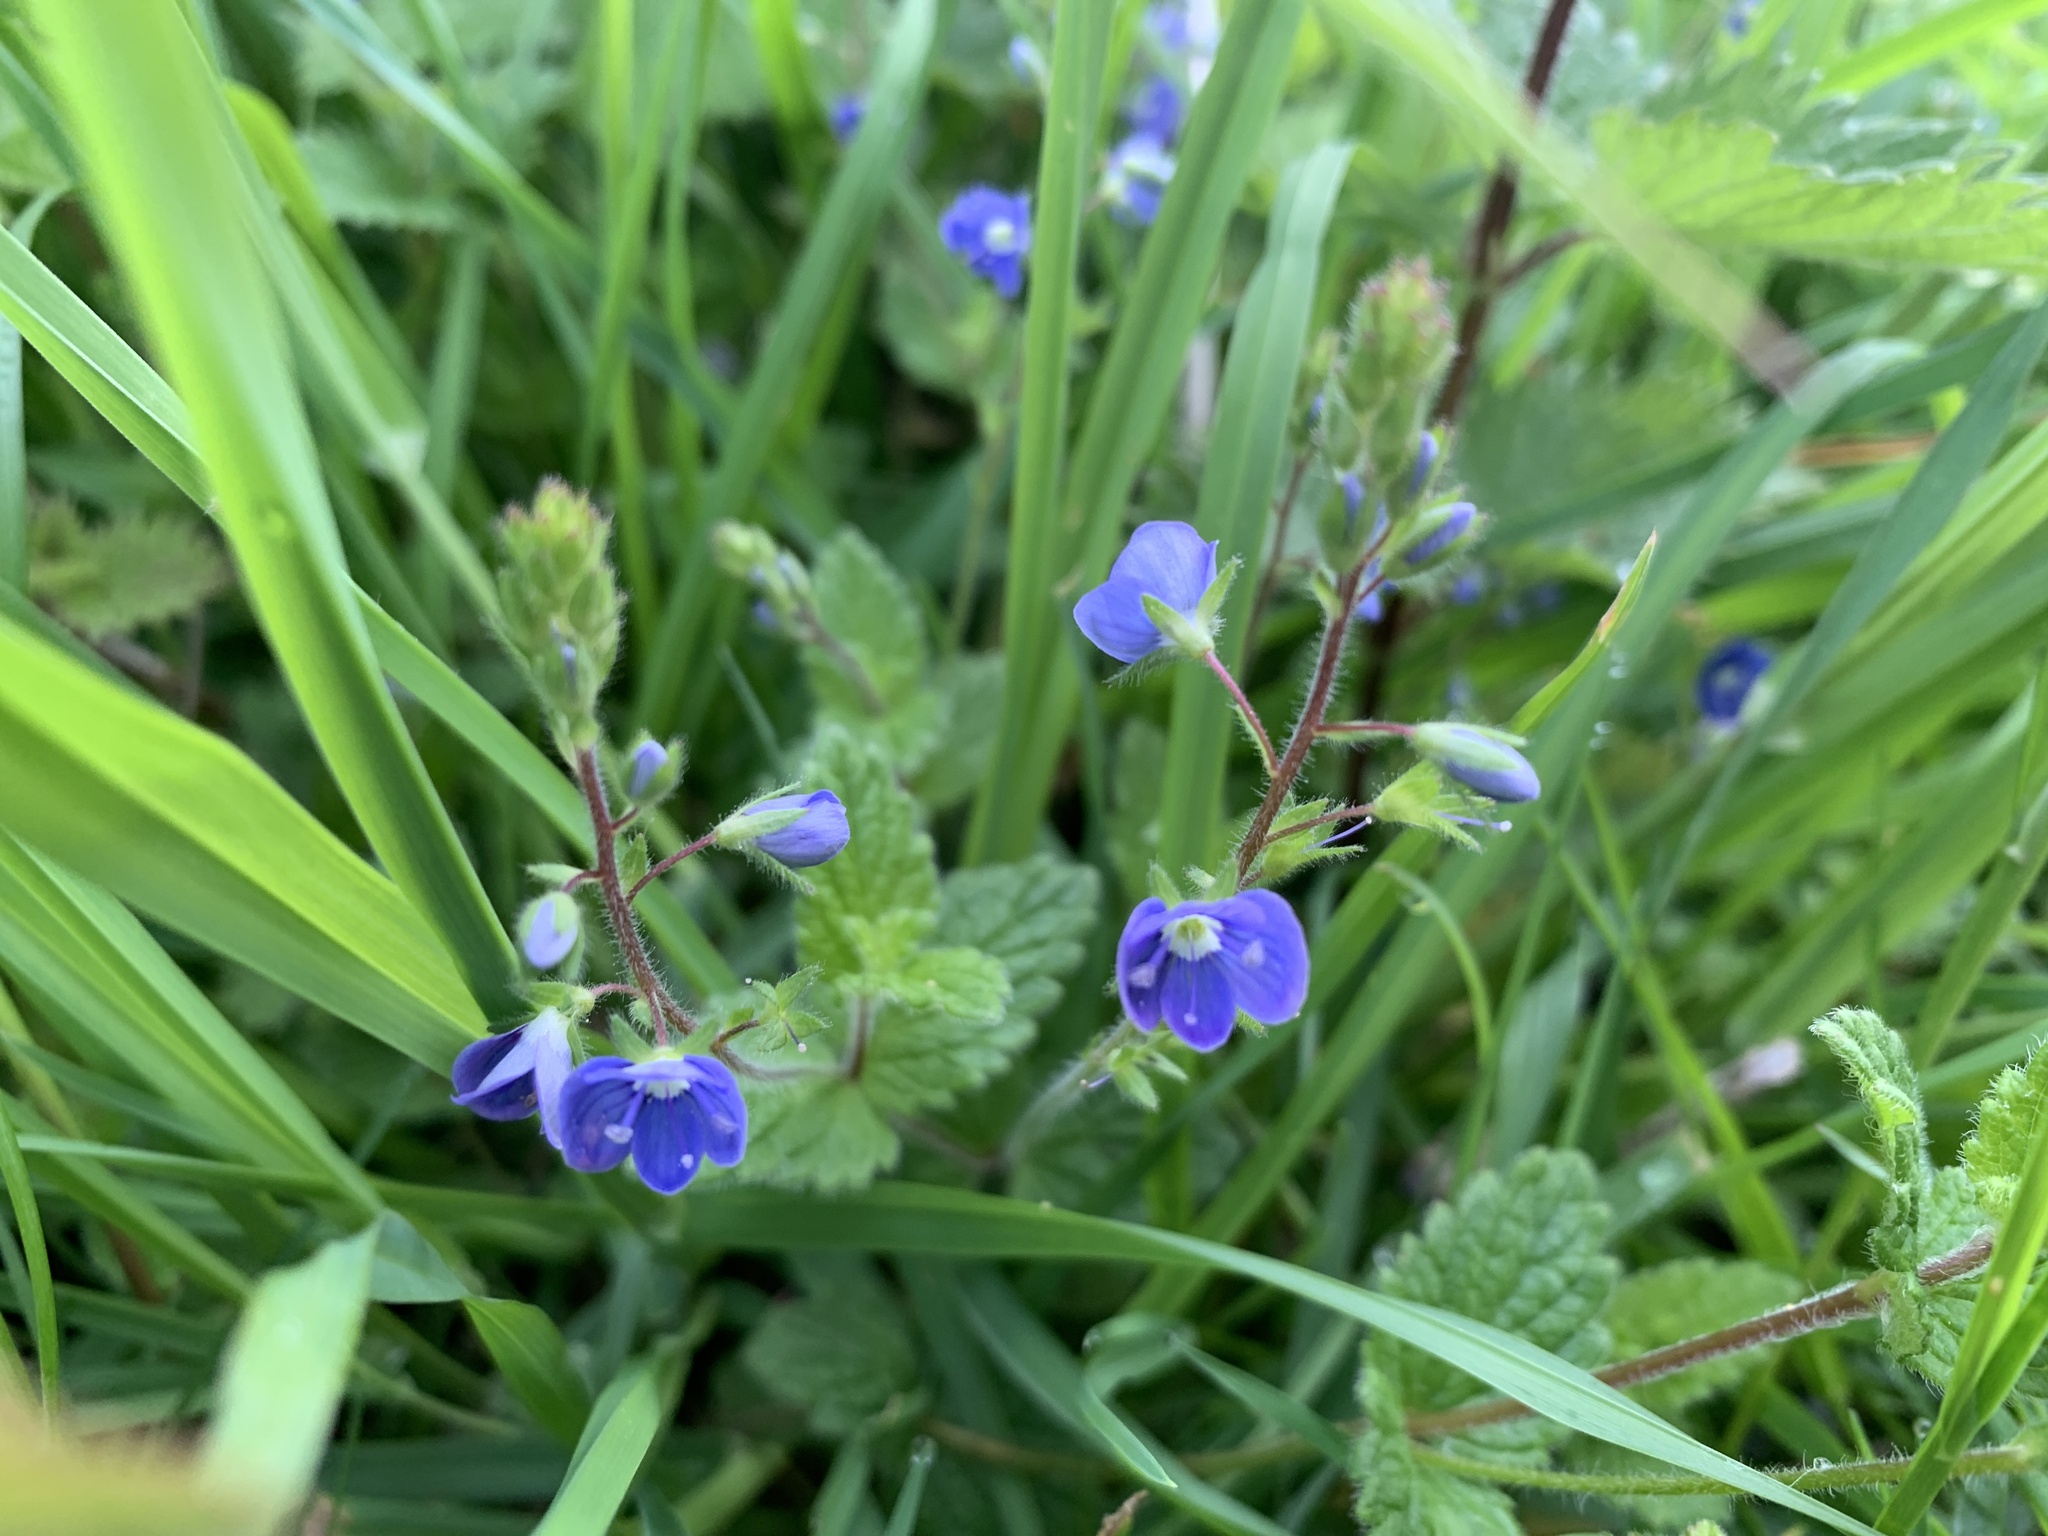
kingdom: Plantae
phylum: Tracheophyta
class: Magnoliopsida
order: Lamiales
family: Plantaginaceae
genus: Veronica
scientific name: Veronica chamaedrys
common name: Germander speedwell
